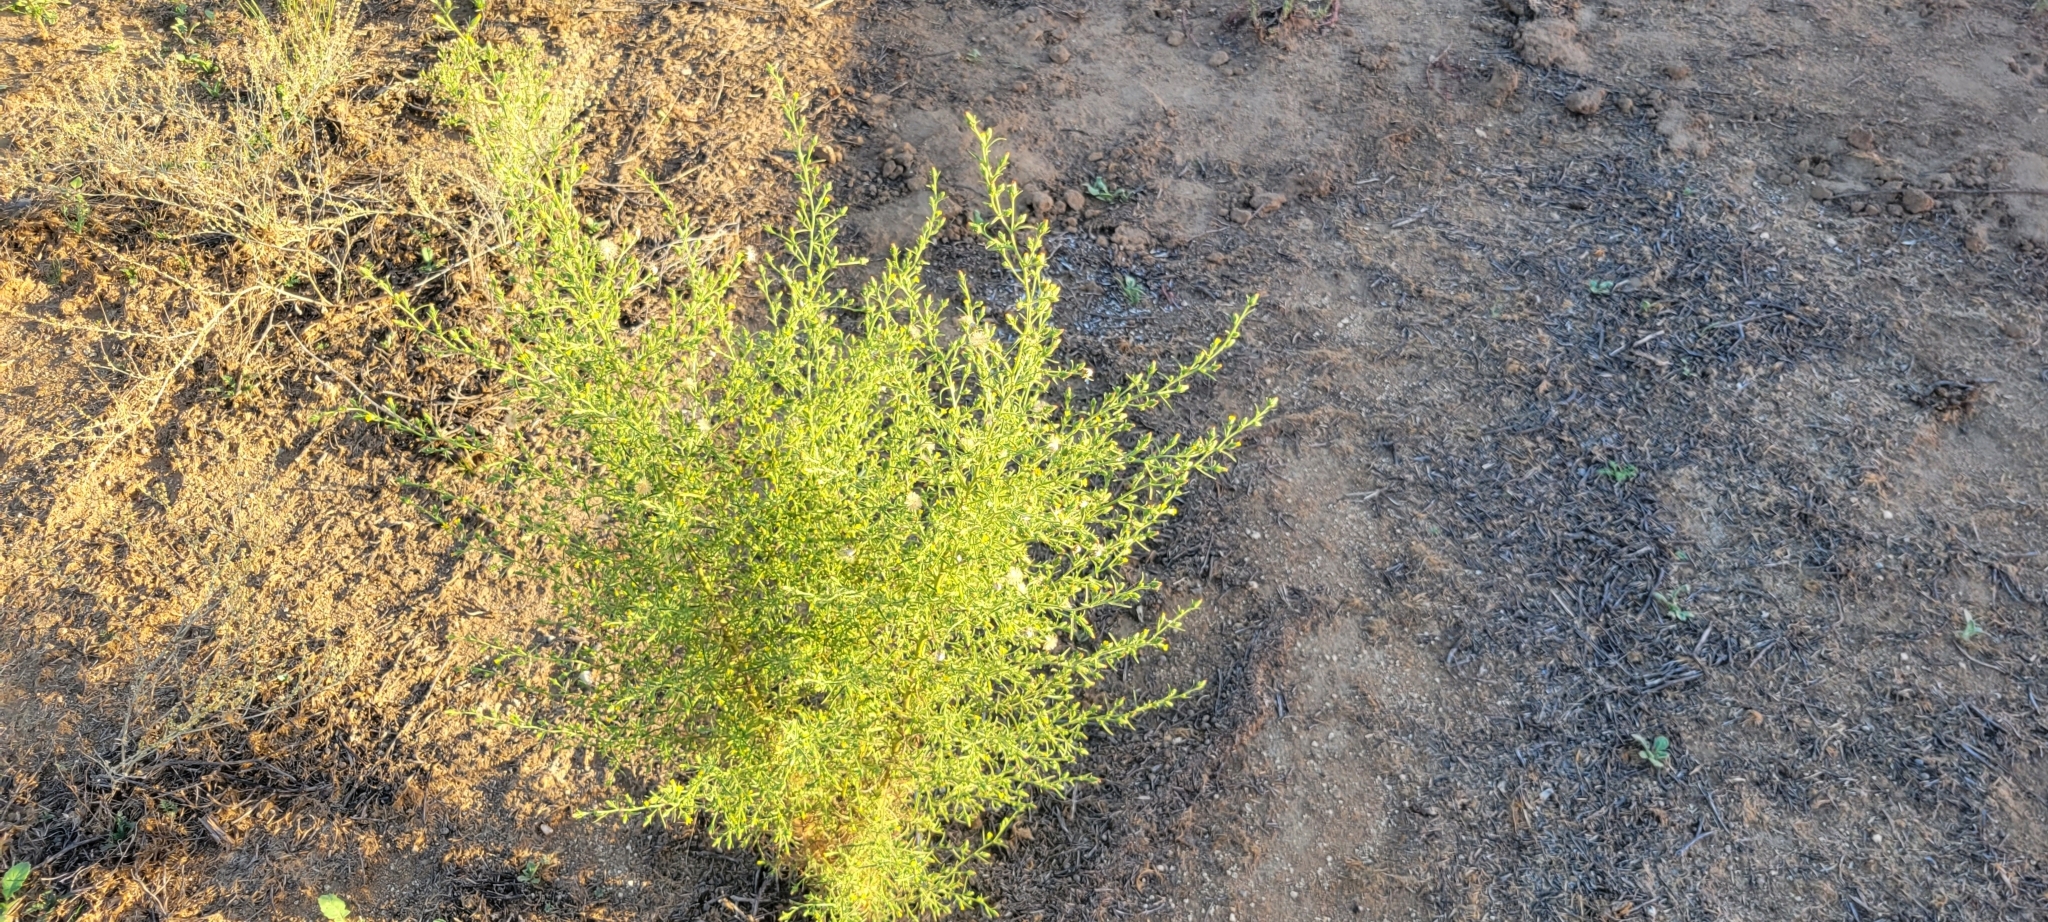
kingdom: Plantae
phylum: Tracheophyta
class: Magnoliopsida
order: Asterales
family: Asteraceae
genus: Dittrichia
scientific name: Dittrichia graveolens
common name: Stinking fleabane
